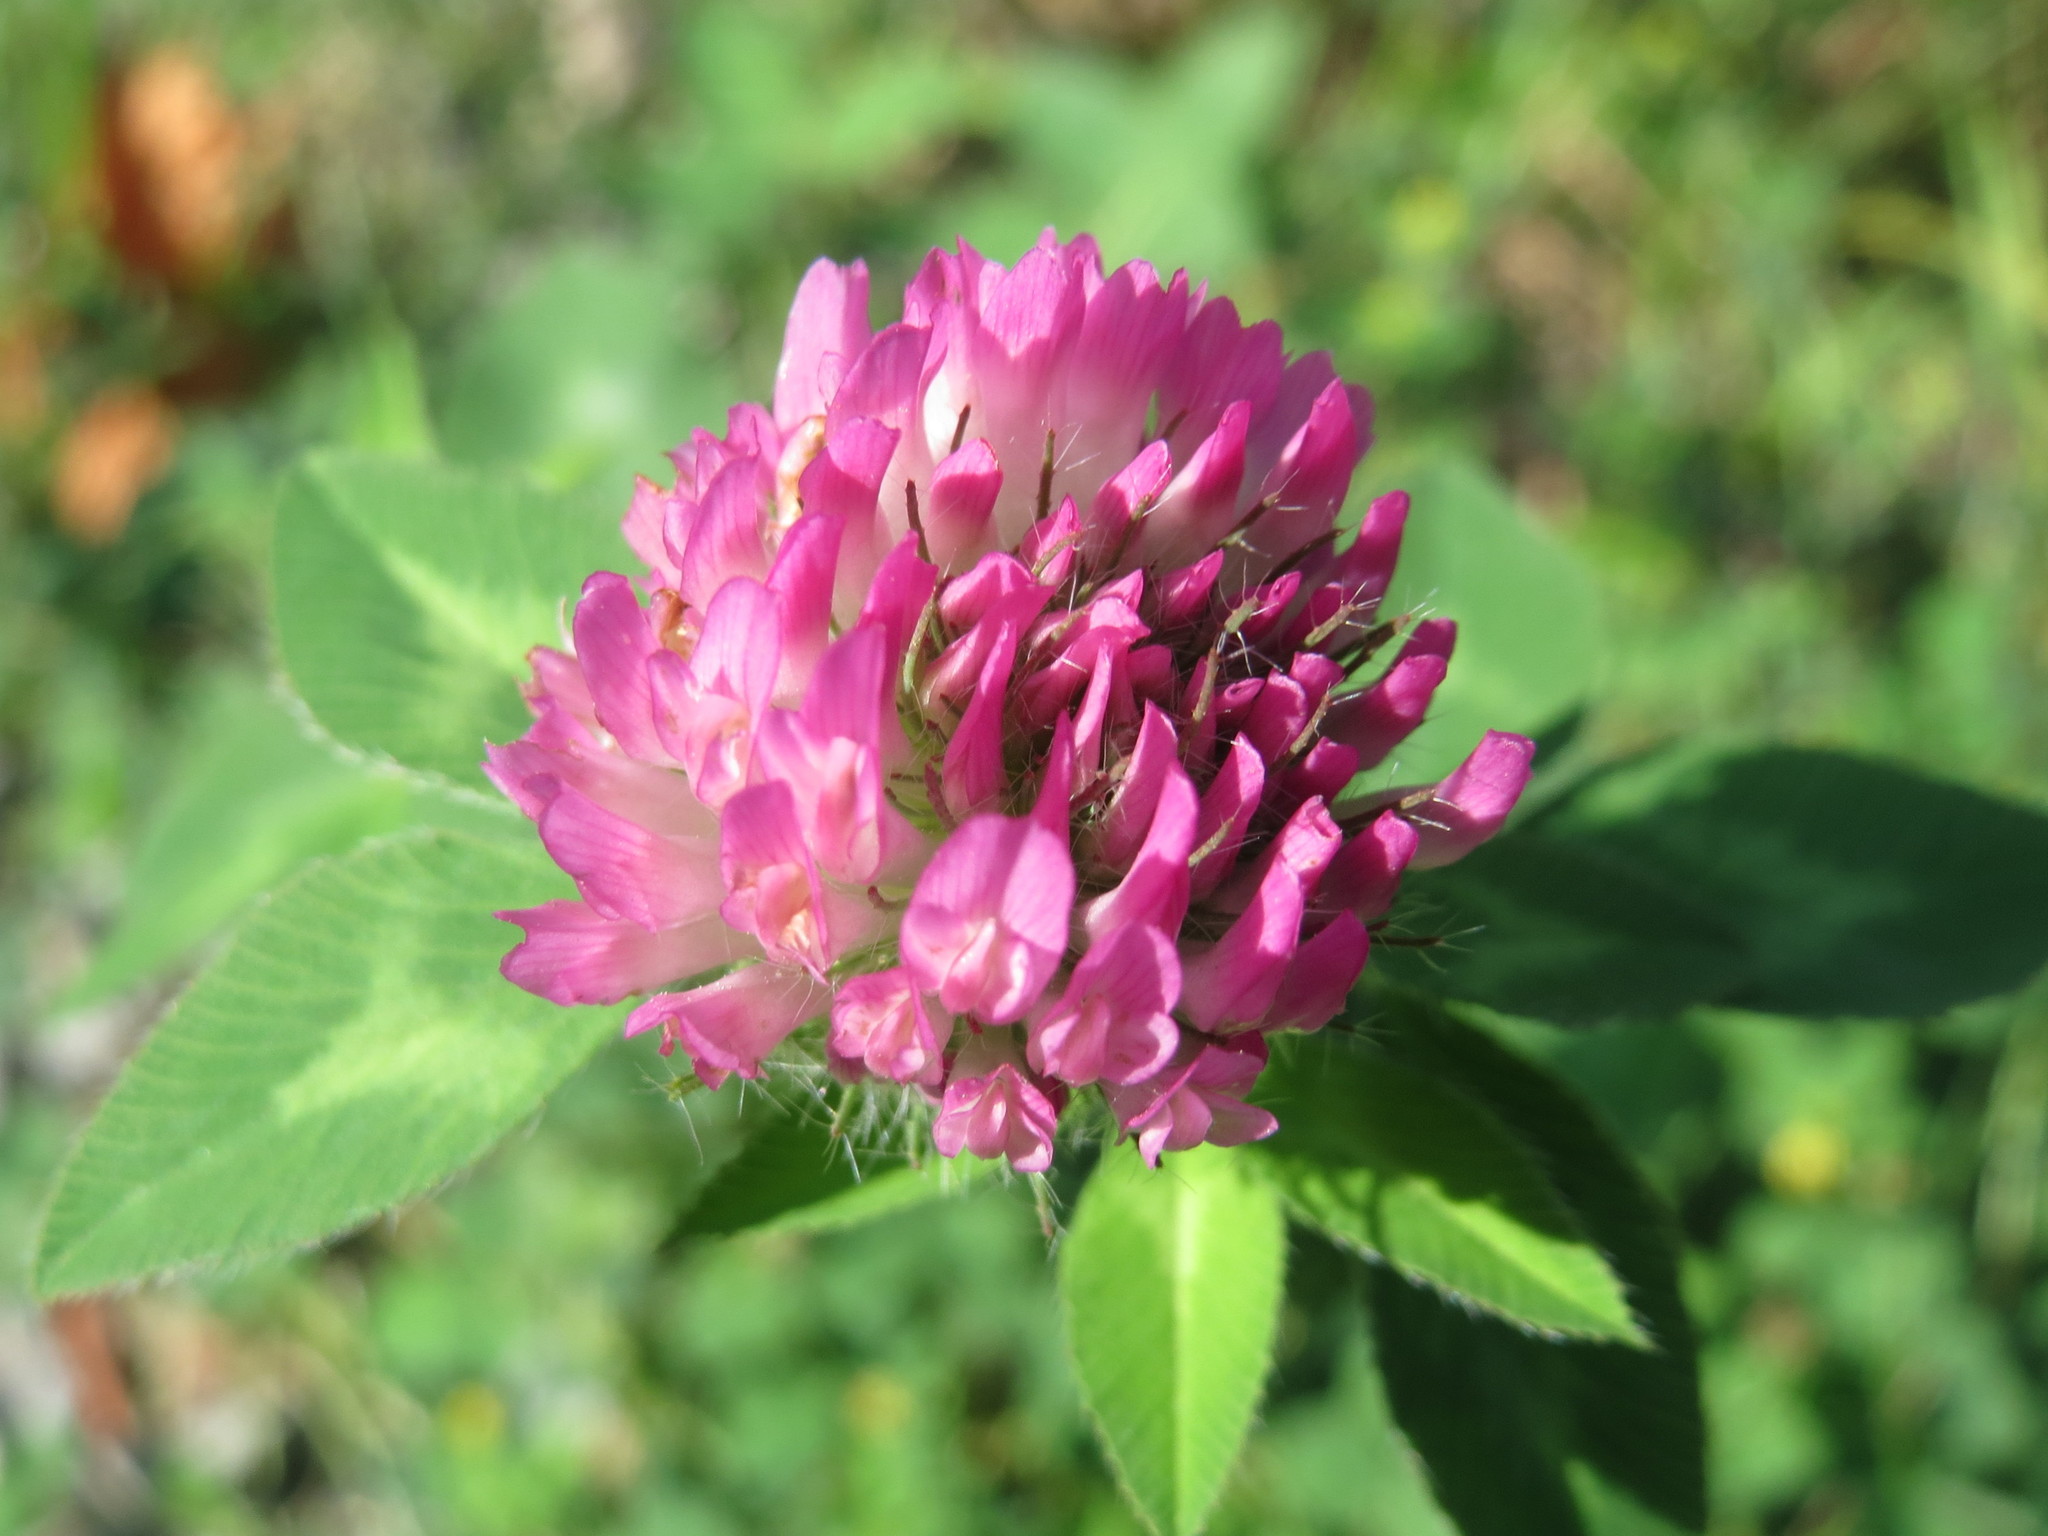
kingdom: Plantae
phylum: Tracheophyta
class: Magnoliopsida
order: Fabales
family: Fabaceae
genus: Trifolium
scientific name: Trifolium pratense
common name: Red clover
